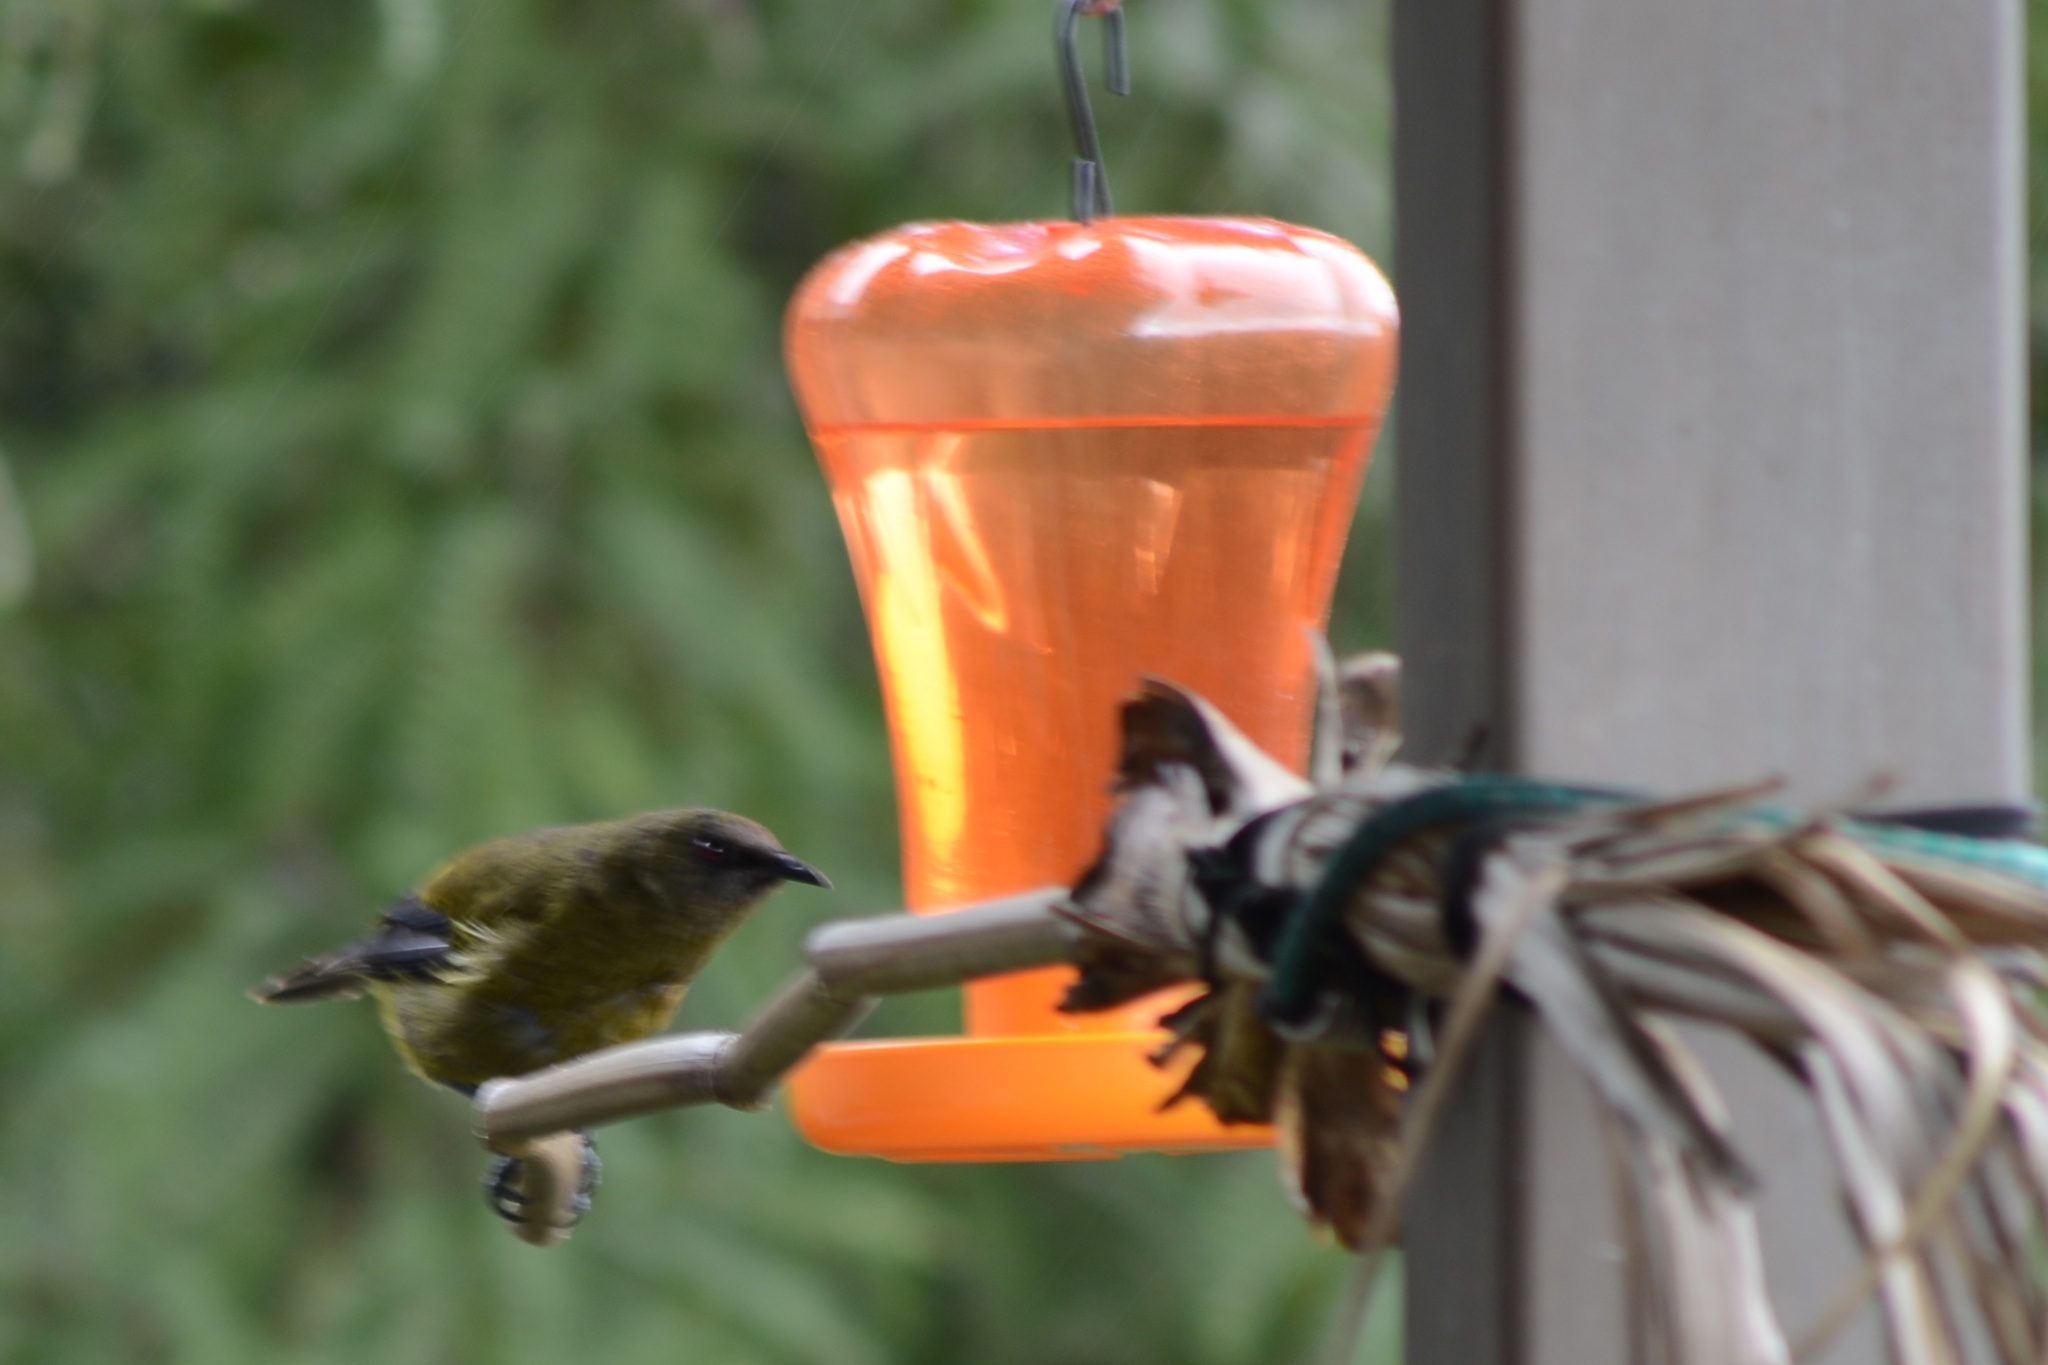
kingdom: Animalia
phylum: Chordata
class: Aves
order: Passeriformes
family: Meliphagidae
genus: Anthornis
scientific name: Anthornis melanura
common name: New zealand bellbird
